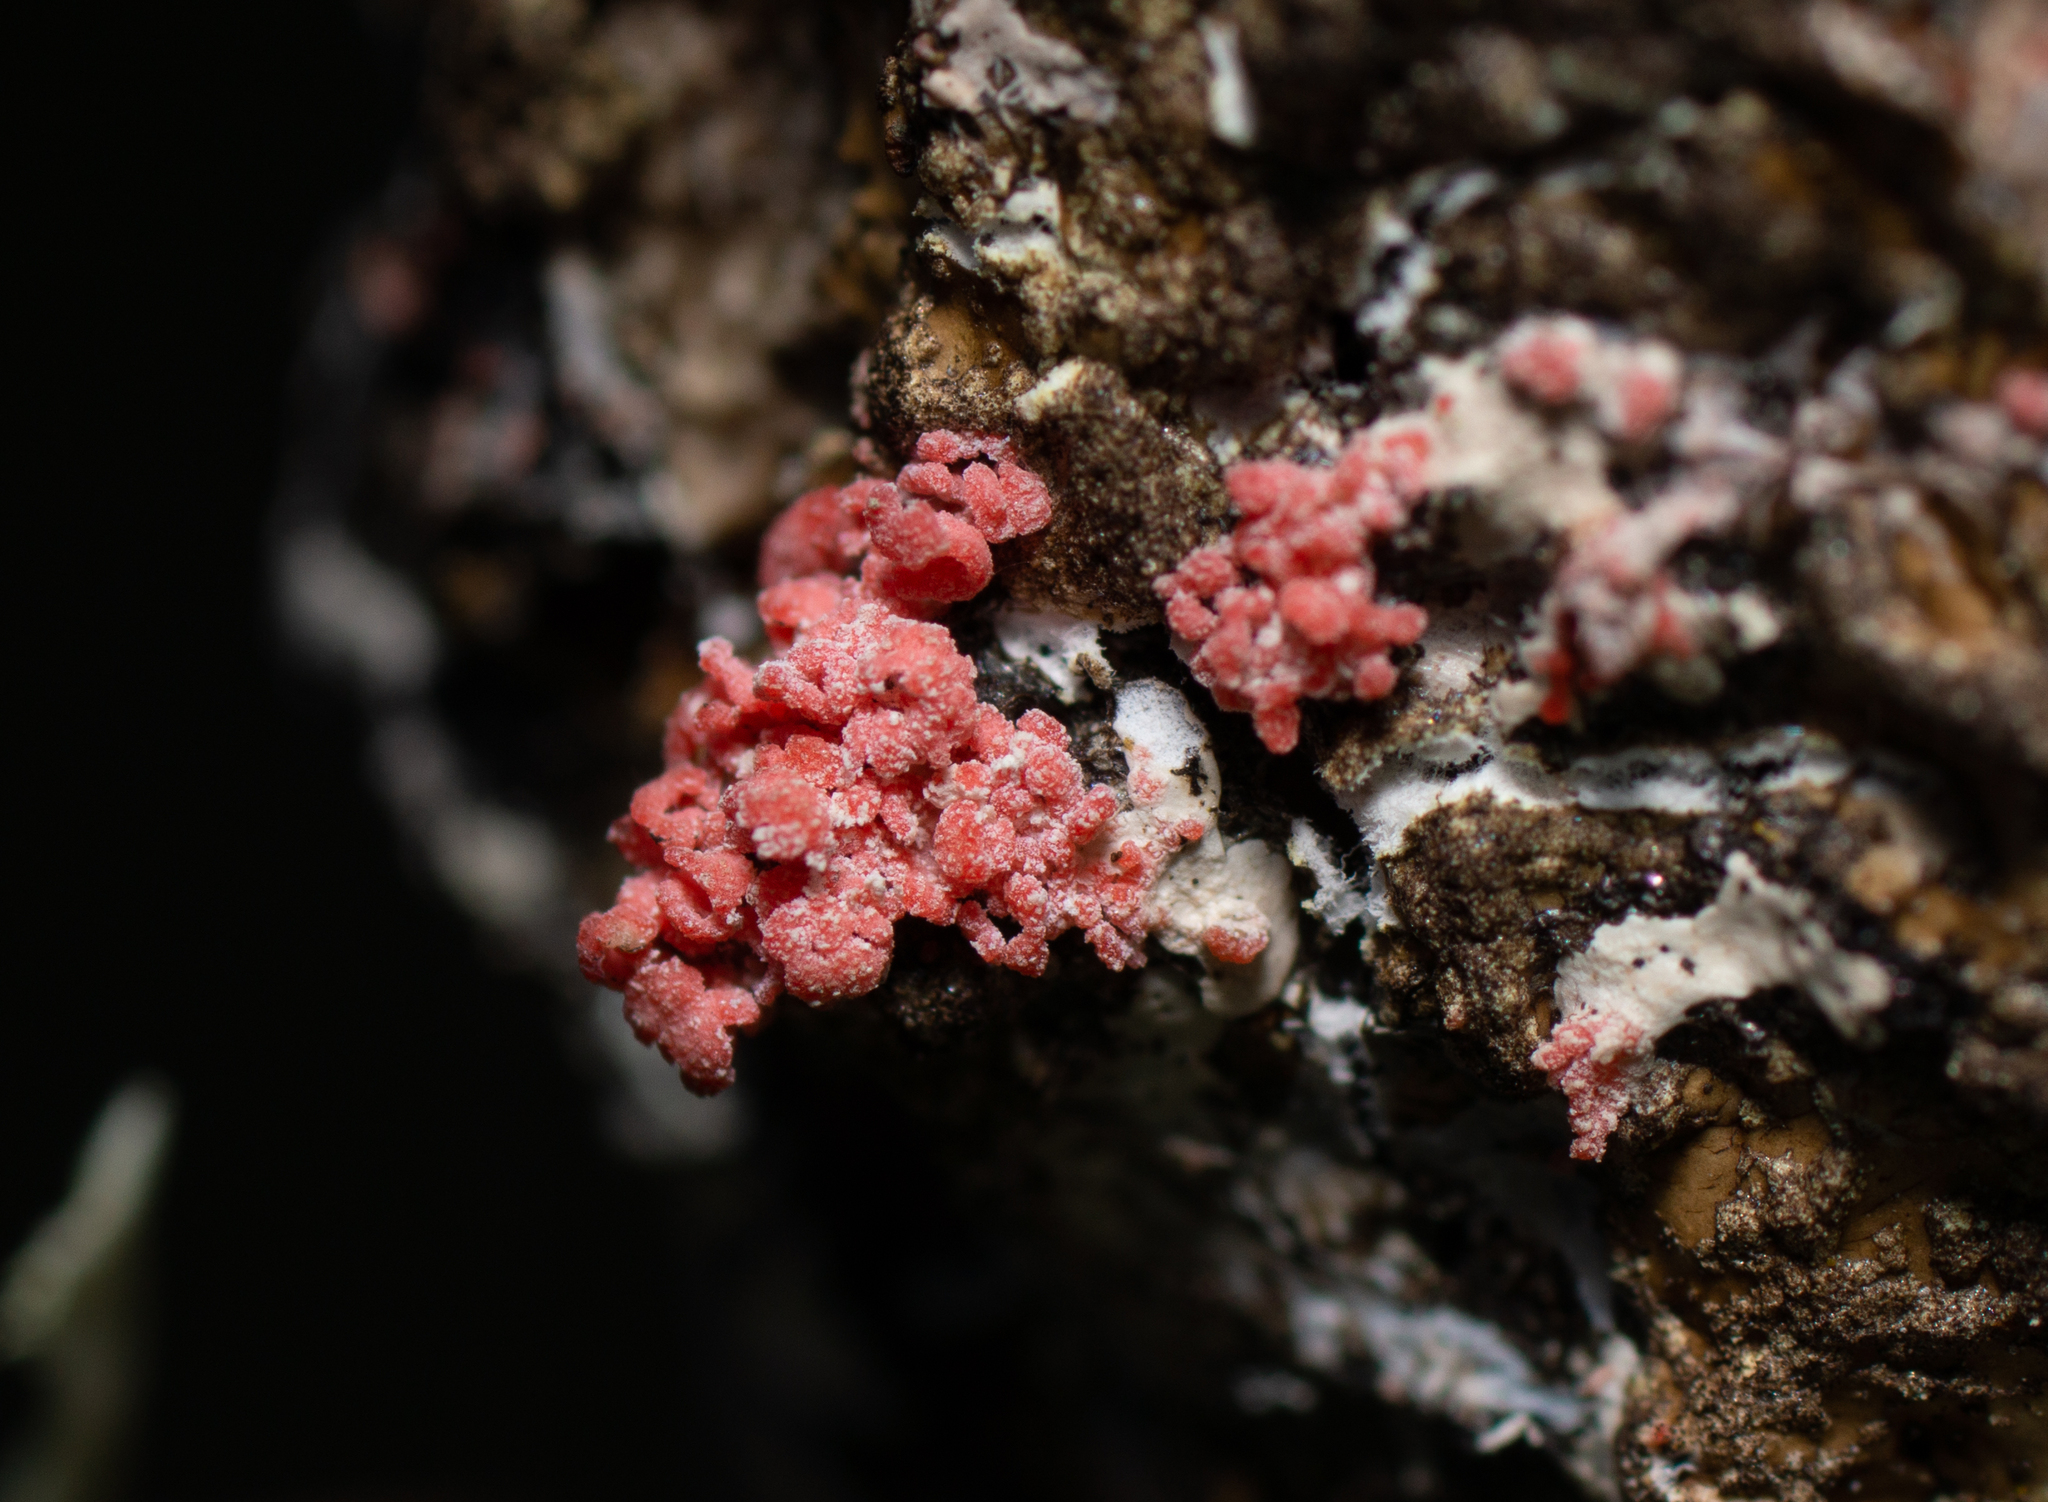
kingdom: Fungi
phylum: Basidiomycota
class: Agaricomycetes
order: Corticiales
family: Corticiaceae
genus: Marchandiomyces
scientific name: Marchandiomyces corallinus
